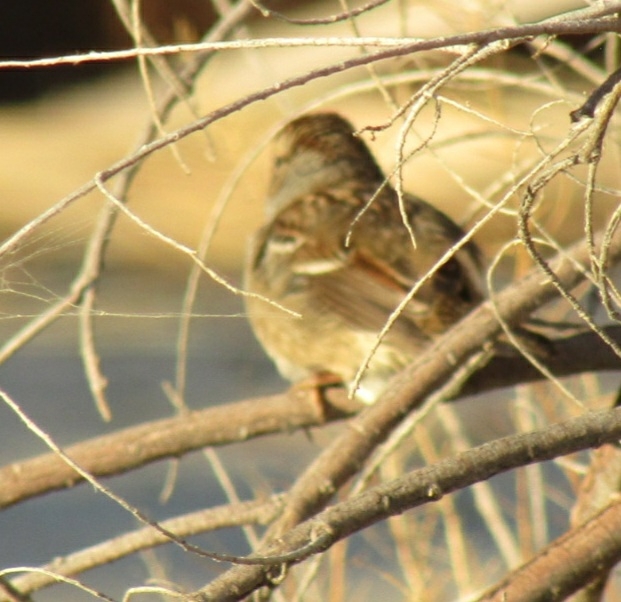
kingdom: Animalia
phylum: Chordata
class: Aves
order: Passeriformes
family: Passerellidae
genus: Zonotrichia
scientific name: Zonotrichia leucophrys
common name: White-crowned sparrow
